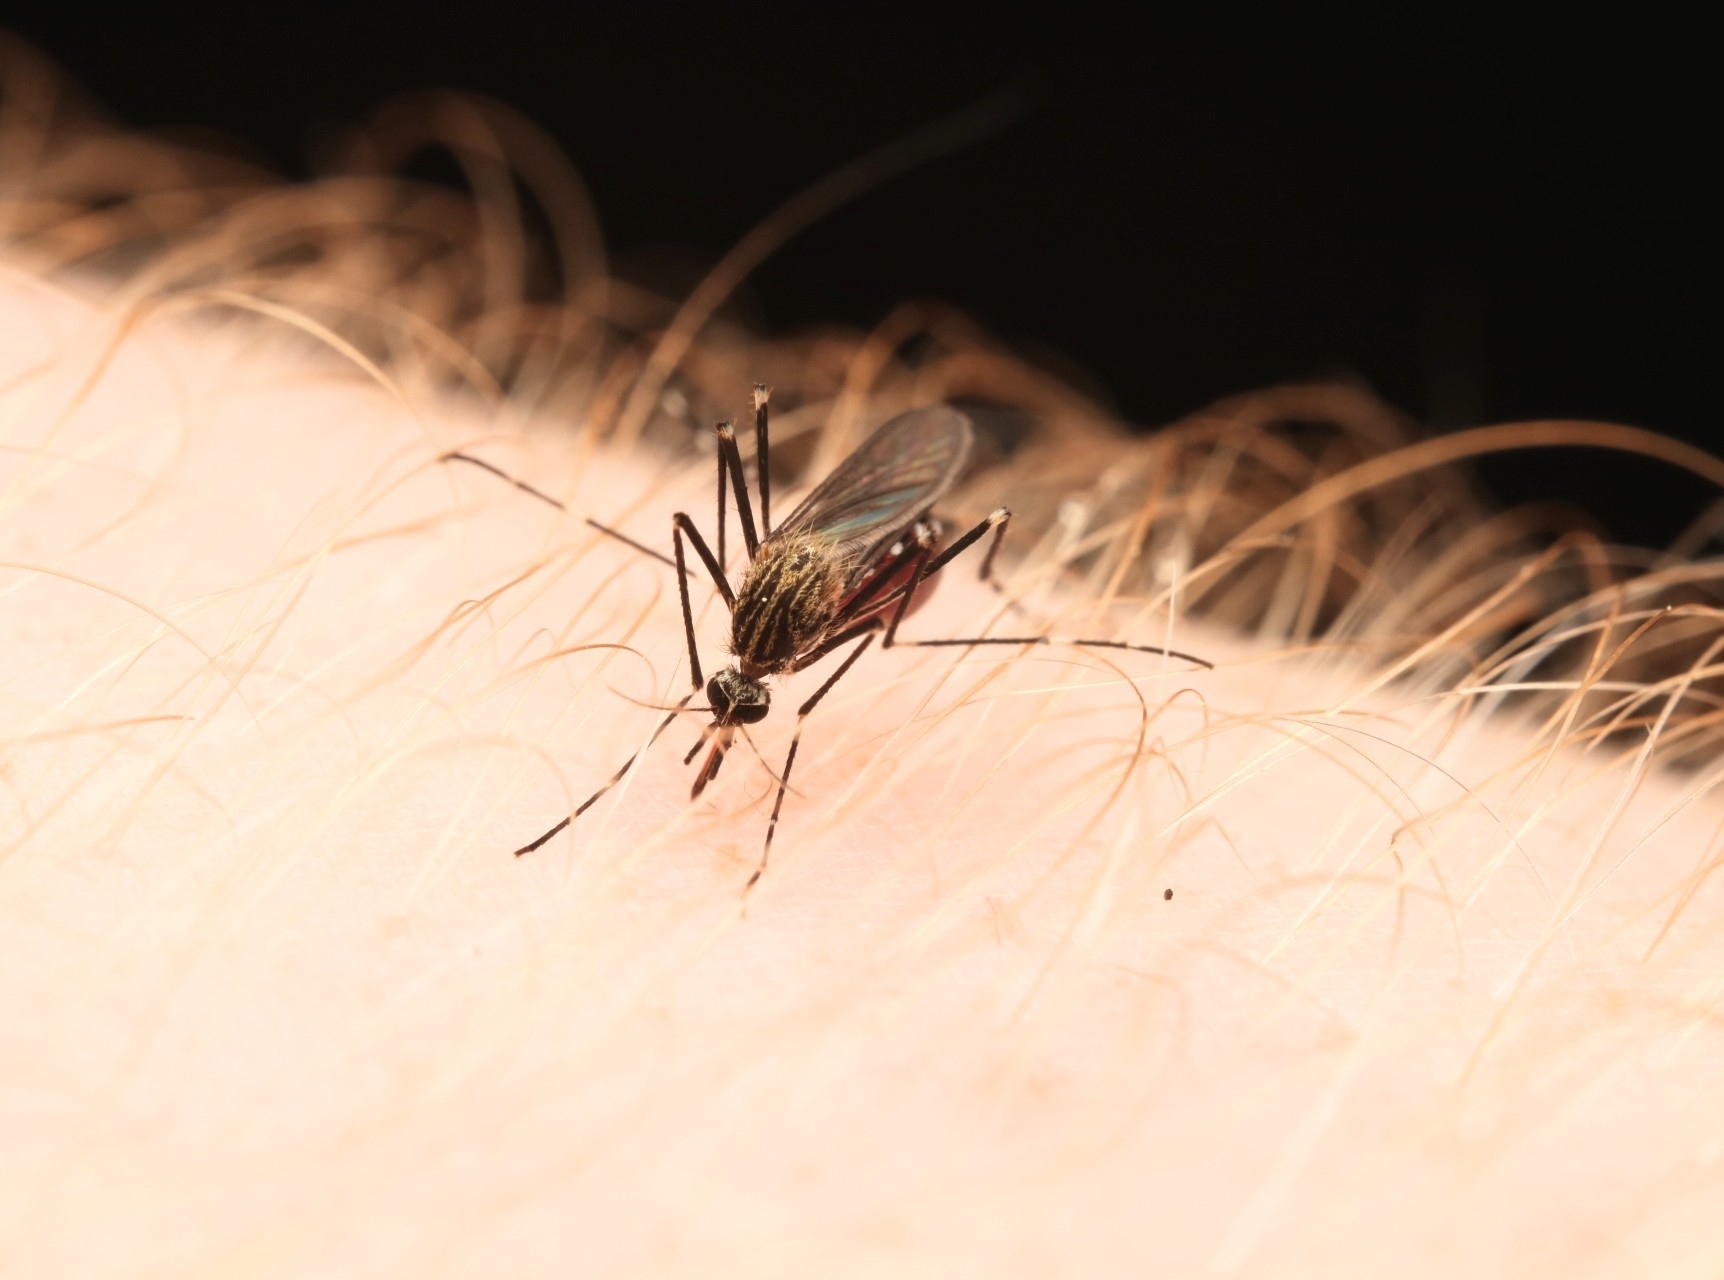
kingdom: Animalia
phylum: Arthropoda
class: Insecta
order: Diptera
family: Culicidae
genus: Aedes
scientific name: Aedes japonicus
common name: Asian bush mosquito
